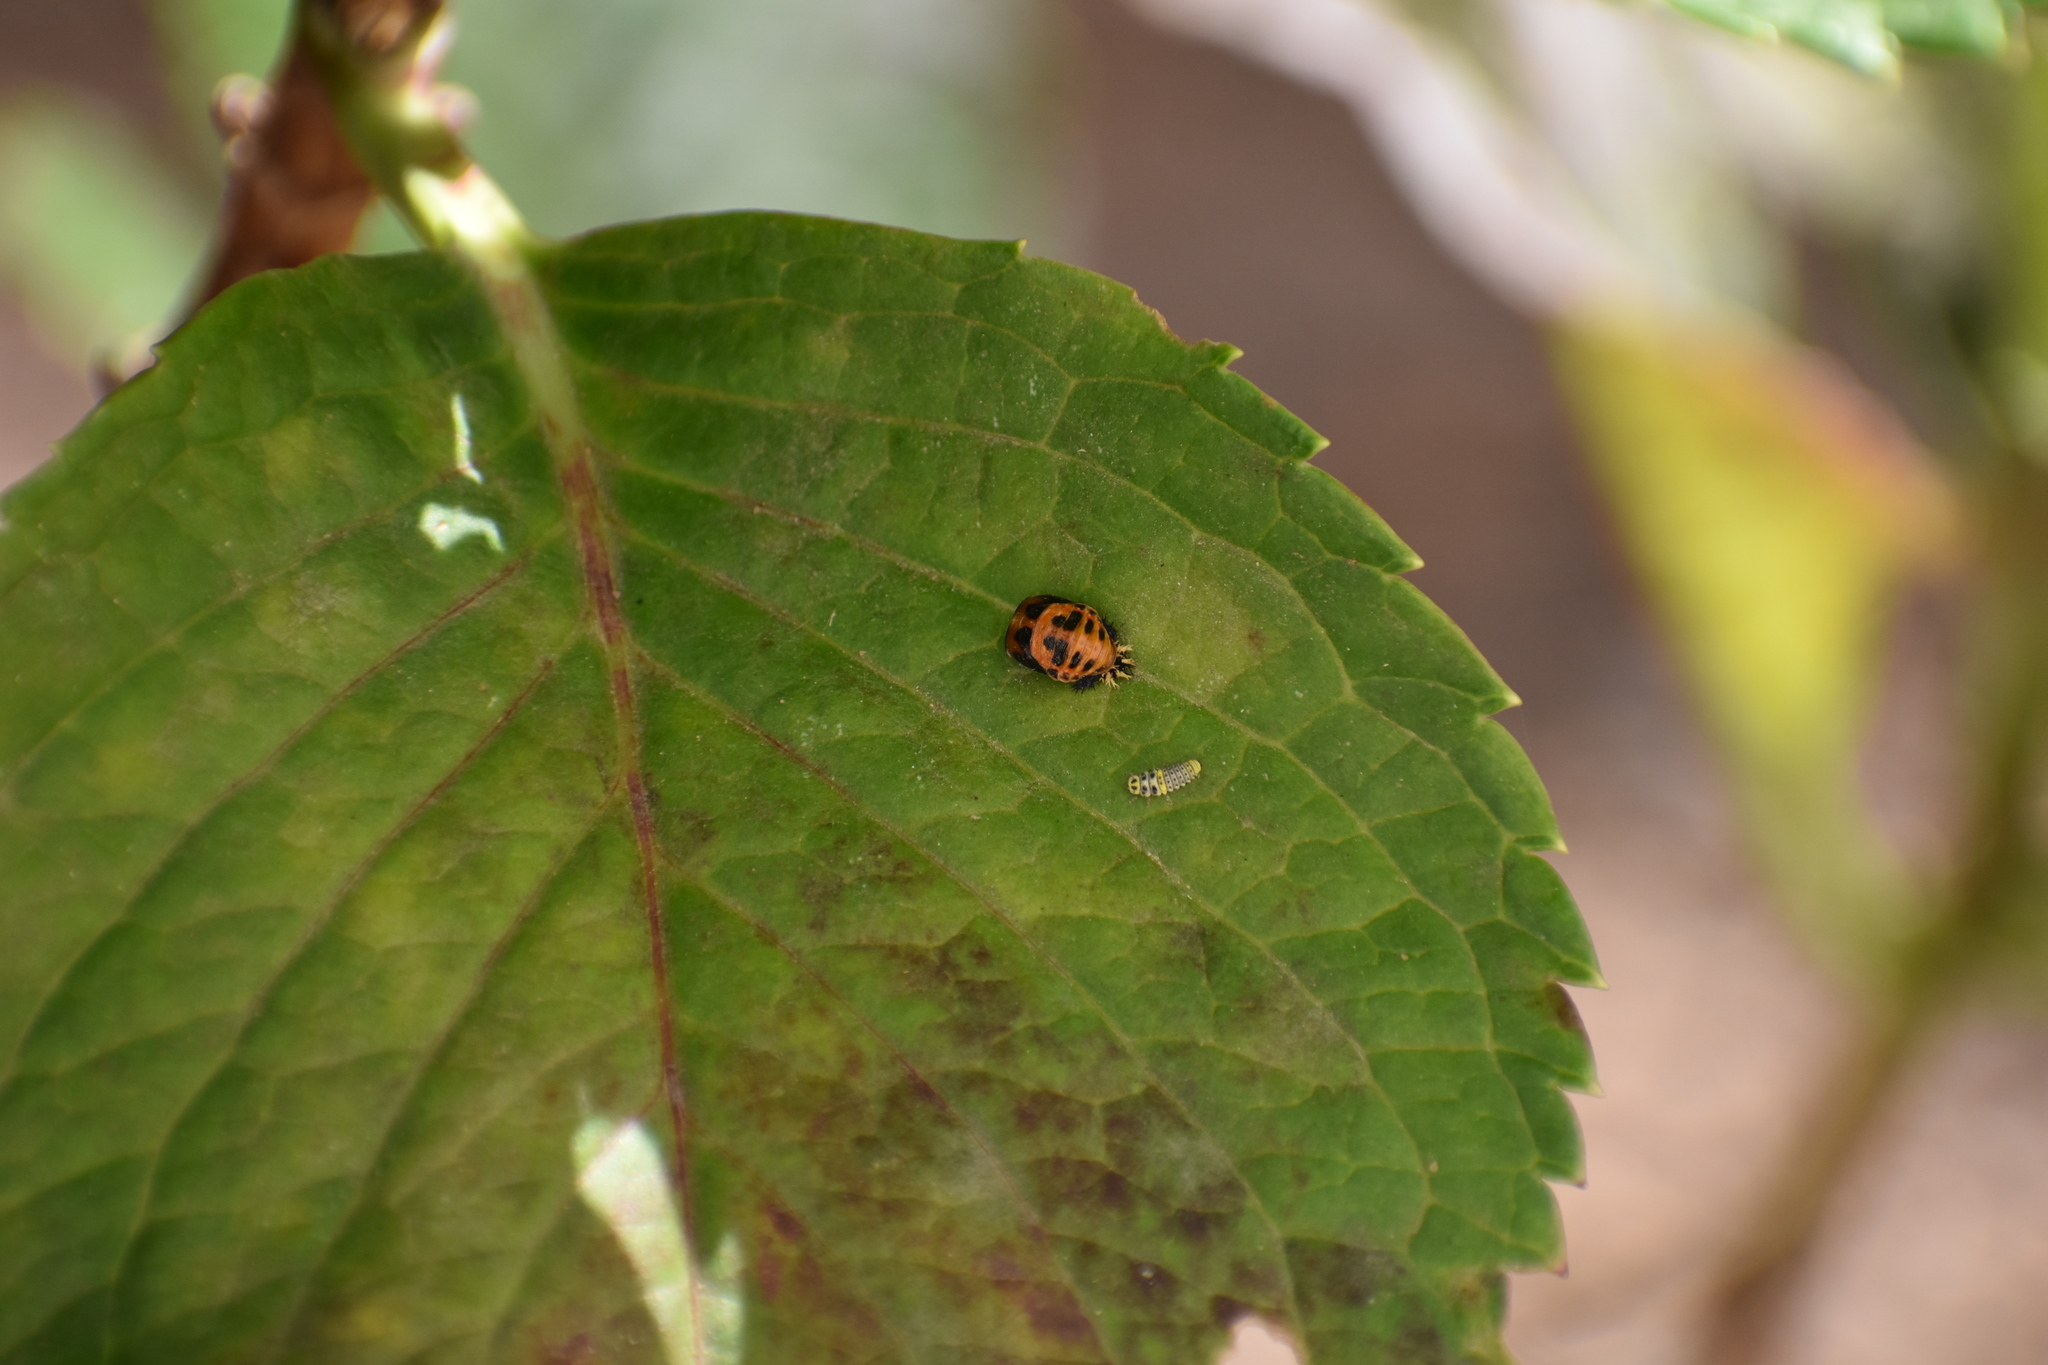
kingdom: Animalia
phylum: Arthropoda
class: Insecta
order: Coleoptera
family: Coccinellidae
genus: Harmonia
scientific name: Harmonia axyridis
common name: Harlequin ladybird
